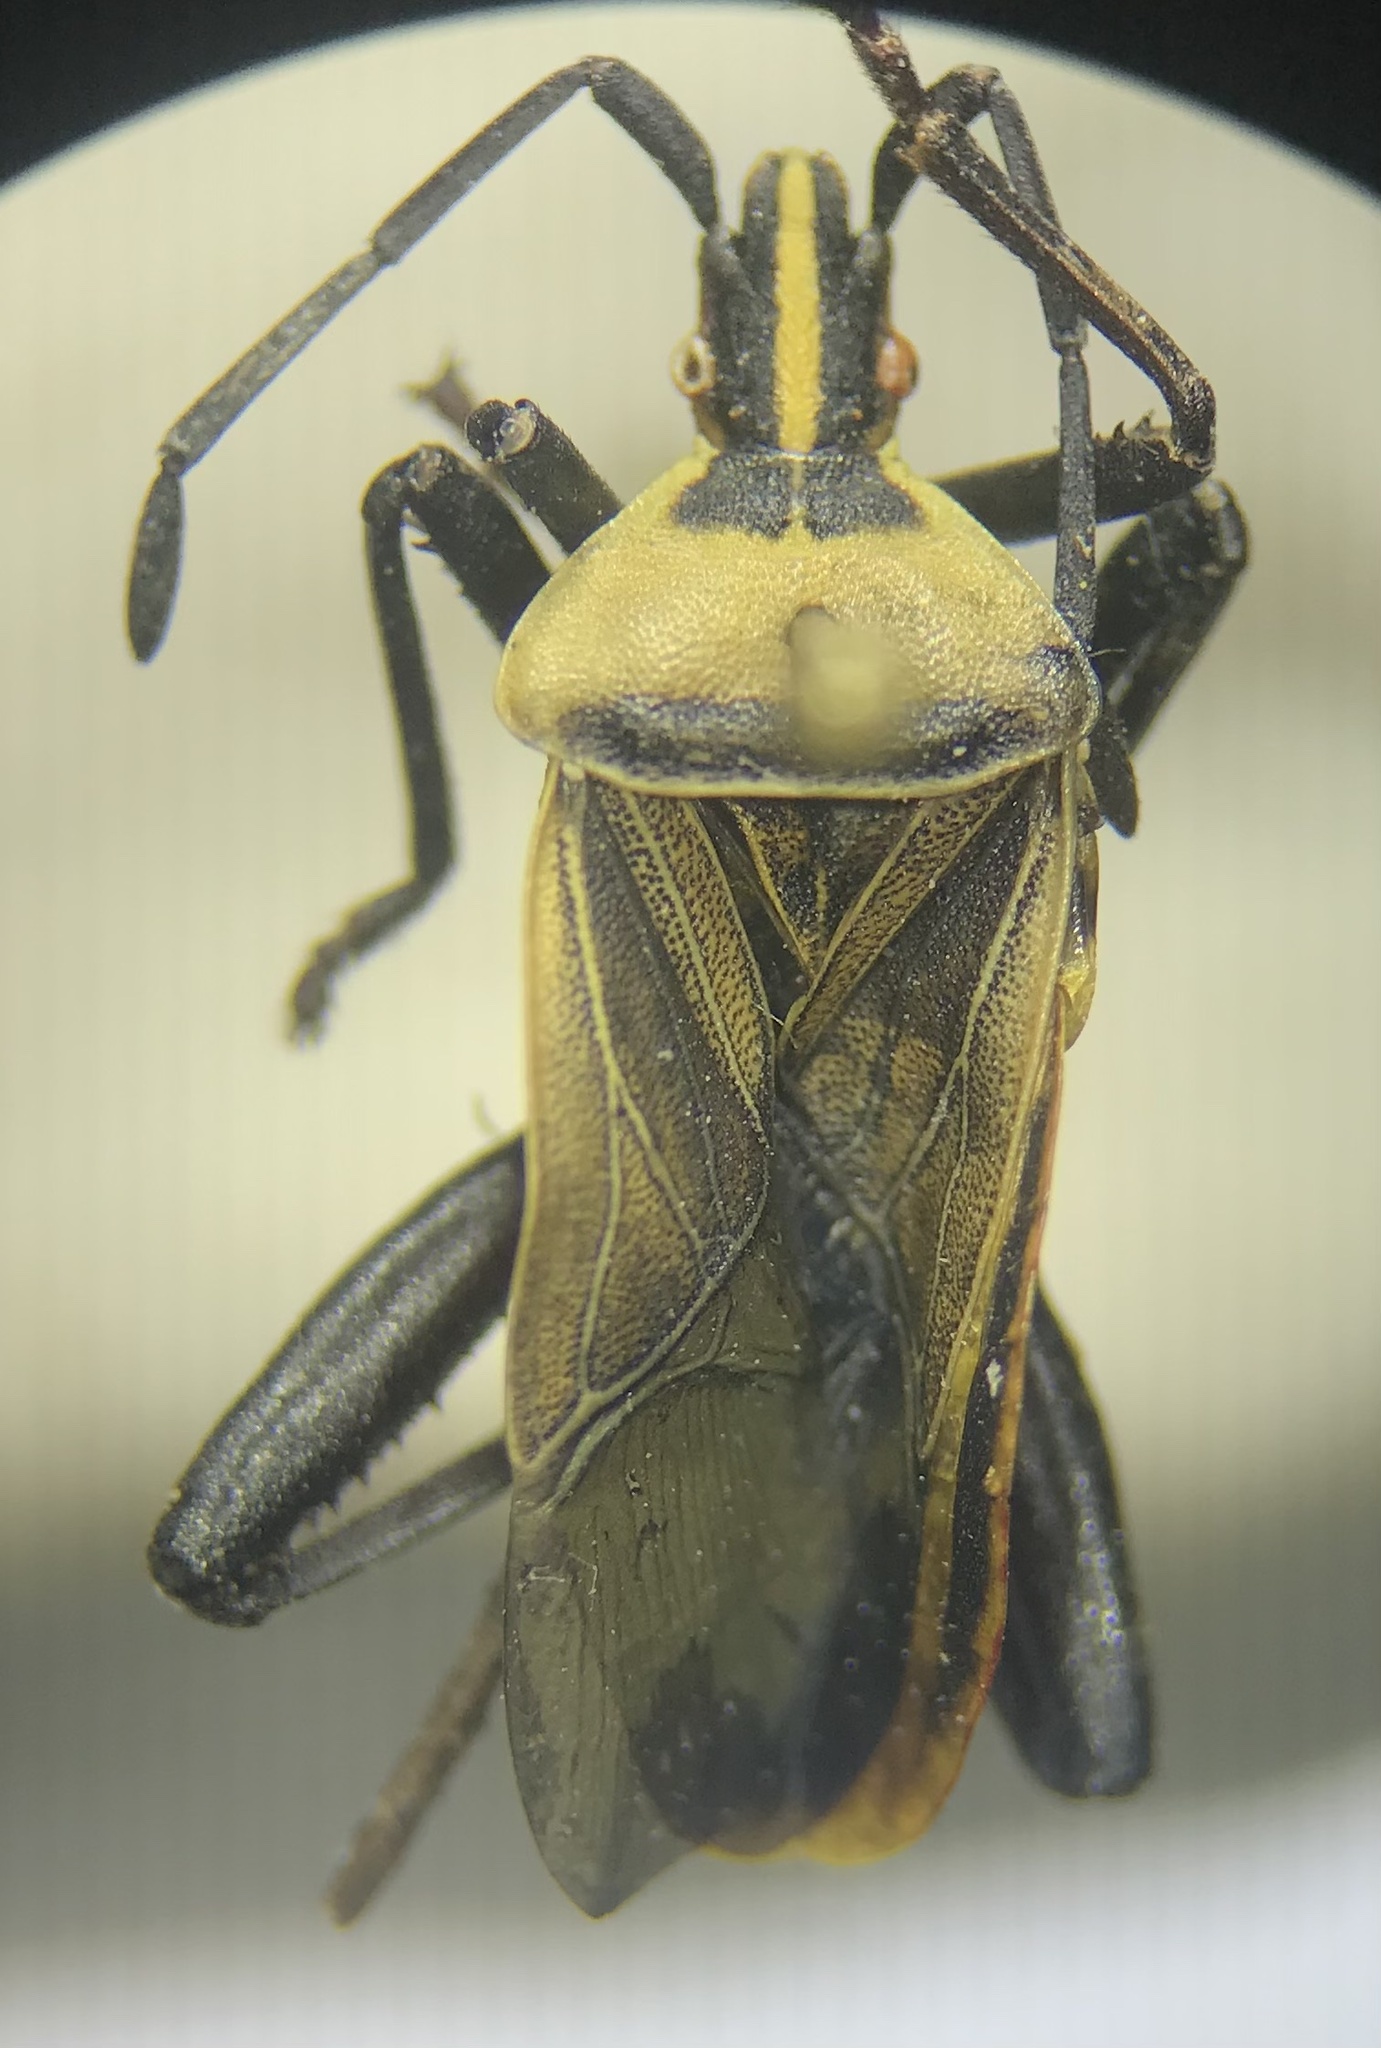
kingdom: Animalia
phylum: Arthropoda
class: Insecta
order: Hemiptera
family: Coreidae
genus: Chelinidea
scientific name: Chelinidea vittiger
